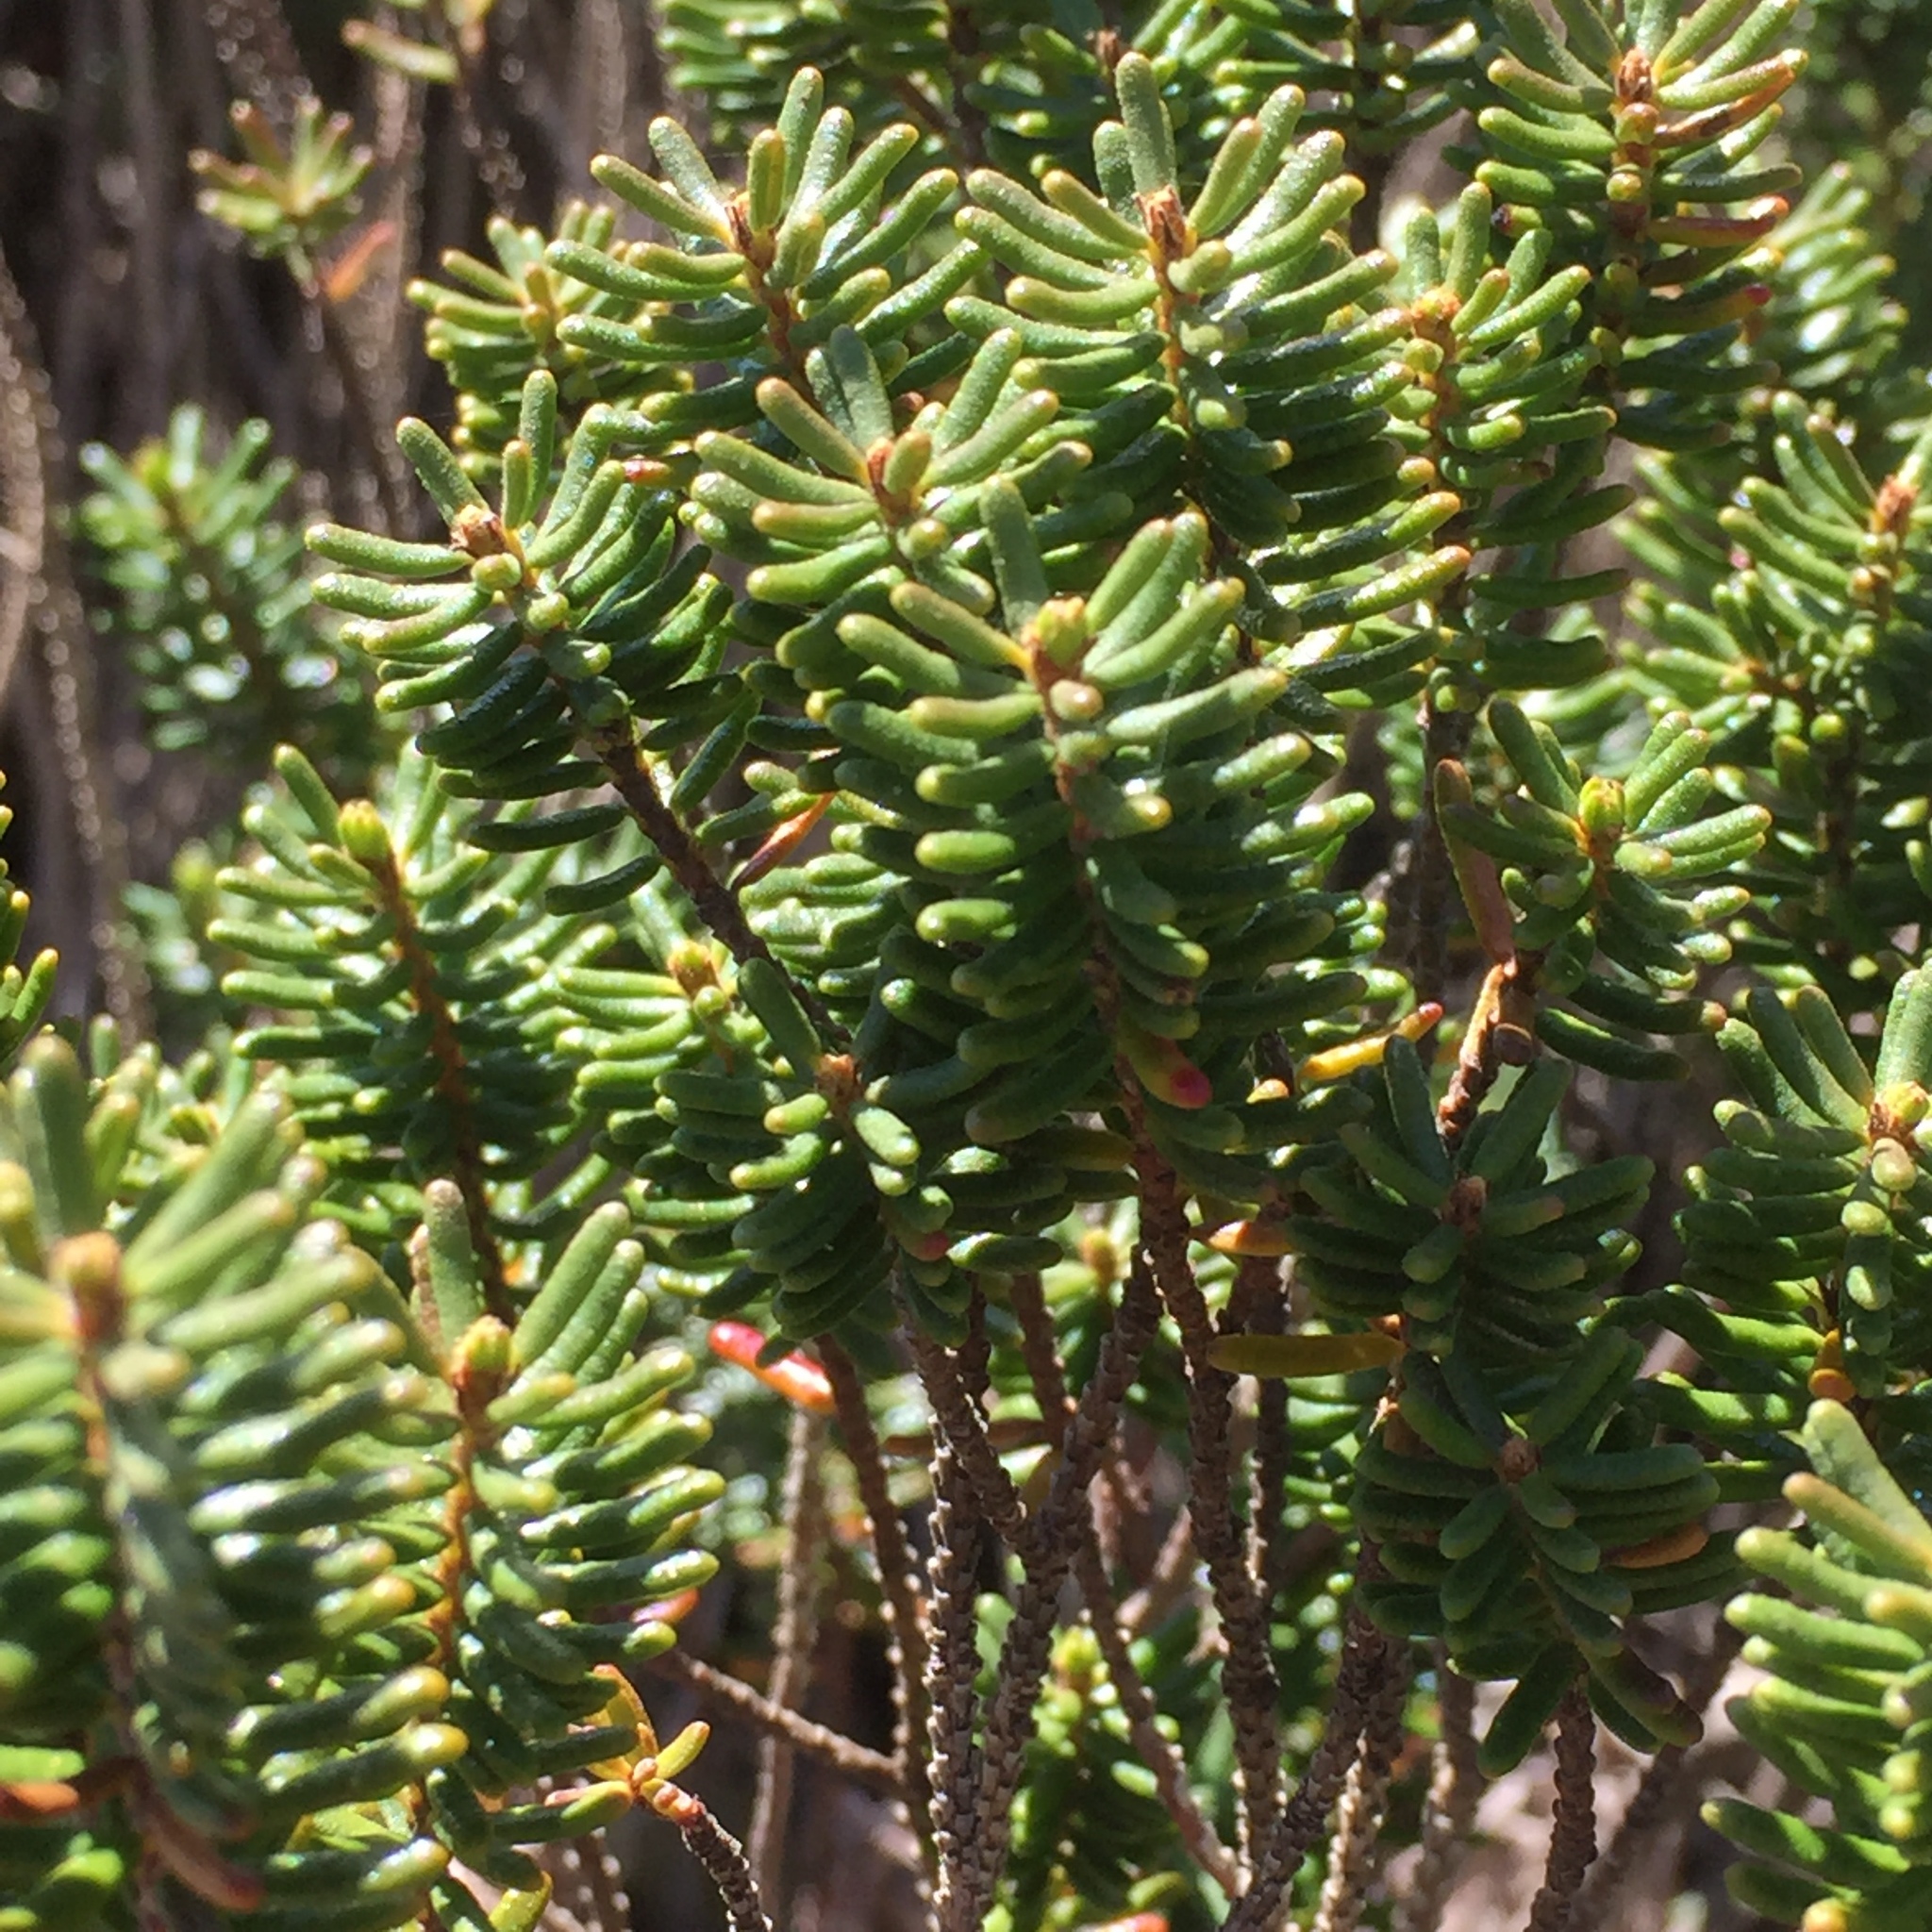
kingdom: Plantae
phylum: Tracheophyta
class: Magnoliopsida
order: Ericales
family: Ericaceae
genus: Corema
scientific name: Corema album
